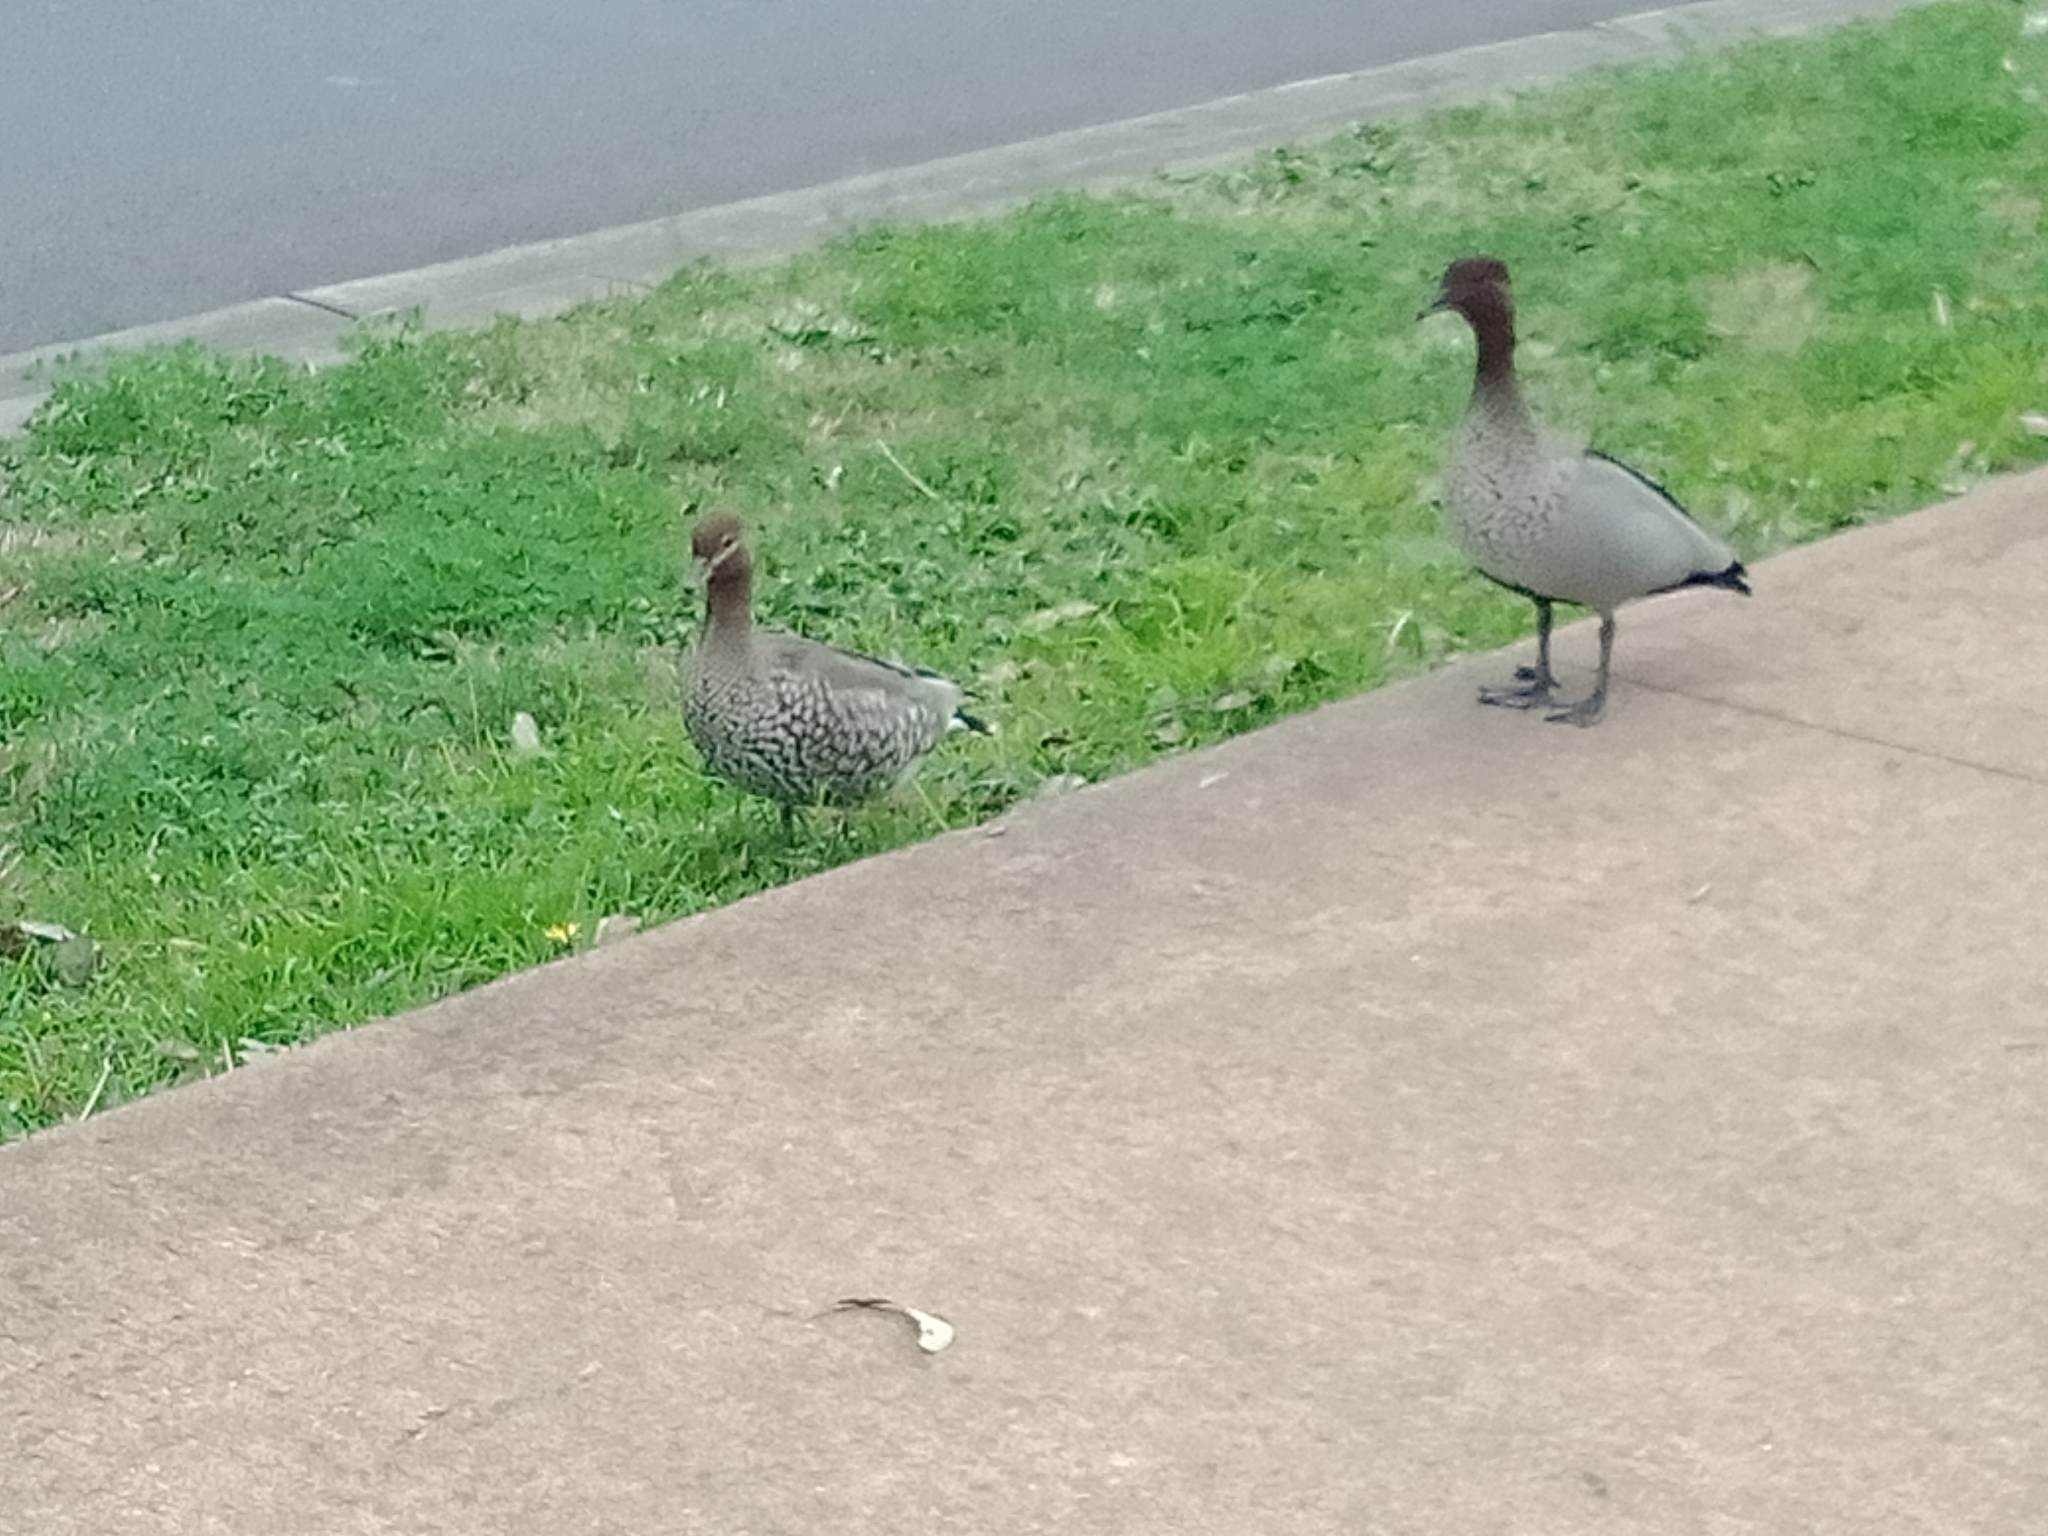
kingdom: Animalia
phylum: Chordata
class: Aves
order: Anseriformes
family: Anatidae
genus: Chenonetta
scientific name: Chenonetta jubata
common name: Maned duck
